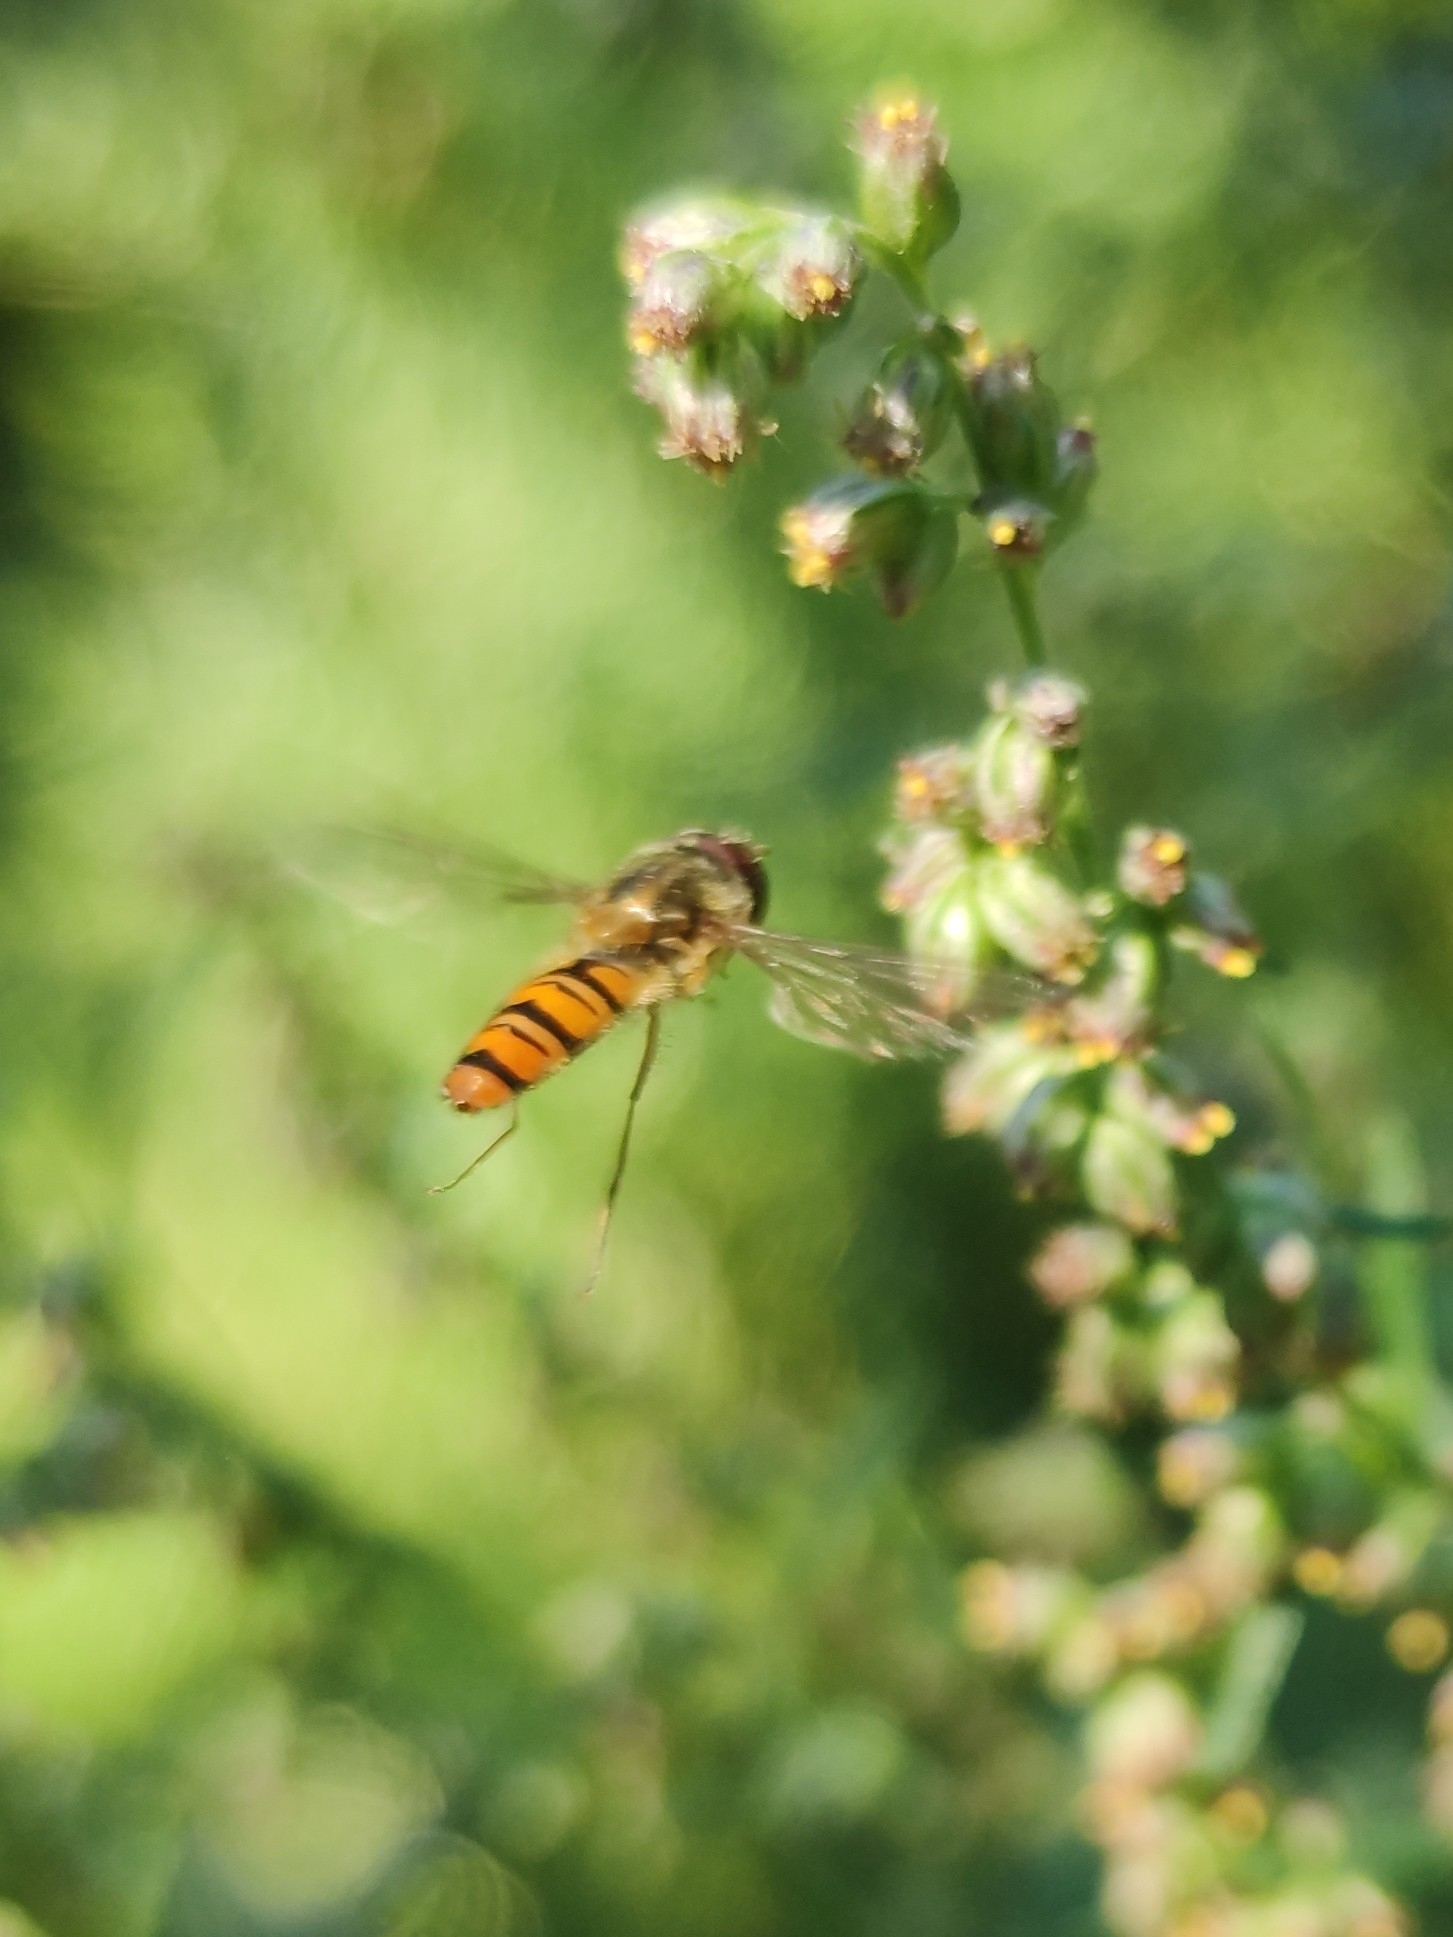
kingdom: Animalia
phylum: Arthropoda
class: Insecta
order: Diptera
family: Syrphidae
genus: Episyrphus
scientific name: Episyrphus balteatus
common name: Marmalade hoverfly
